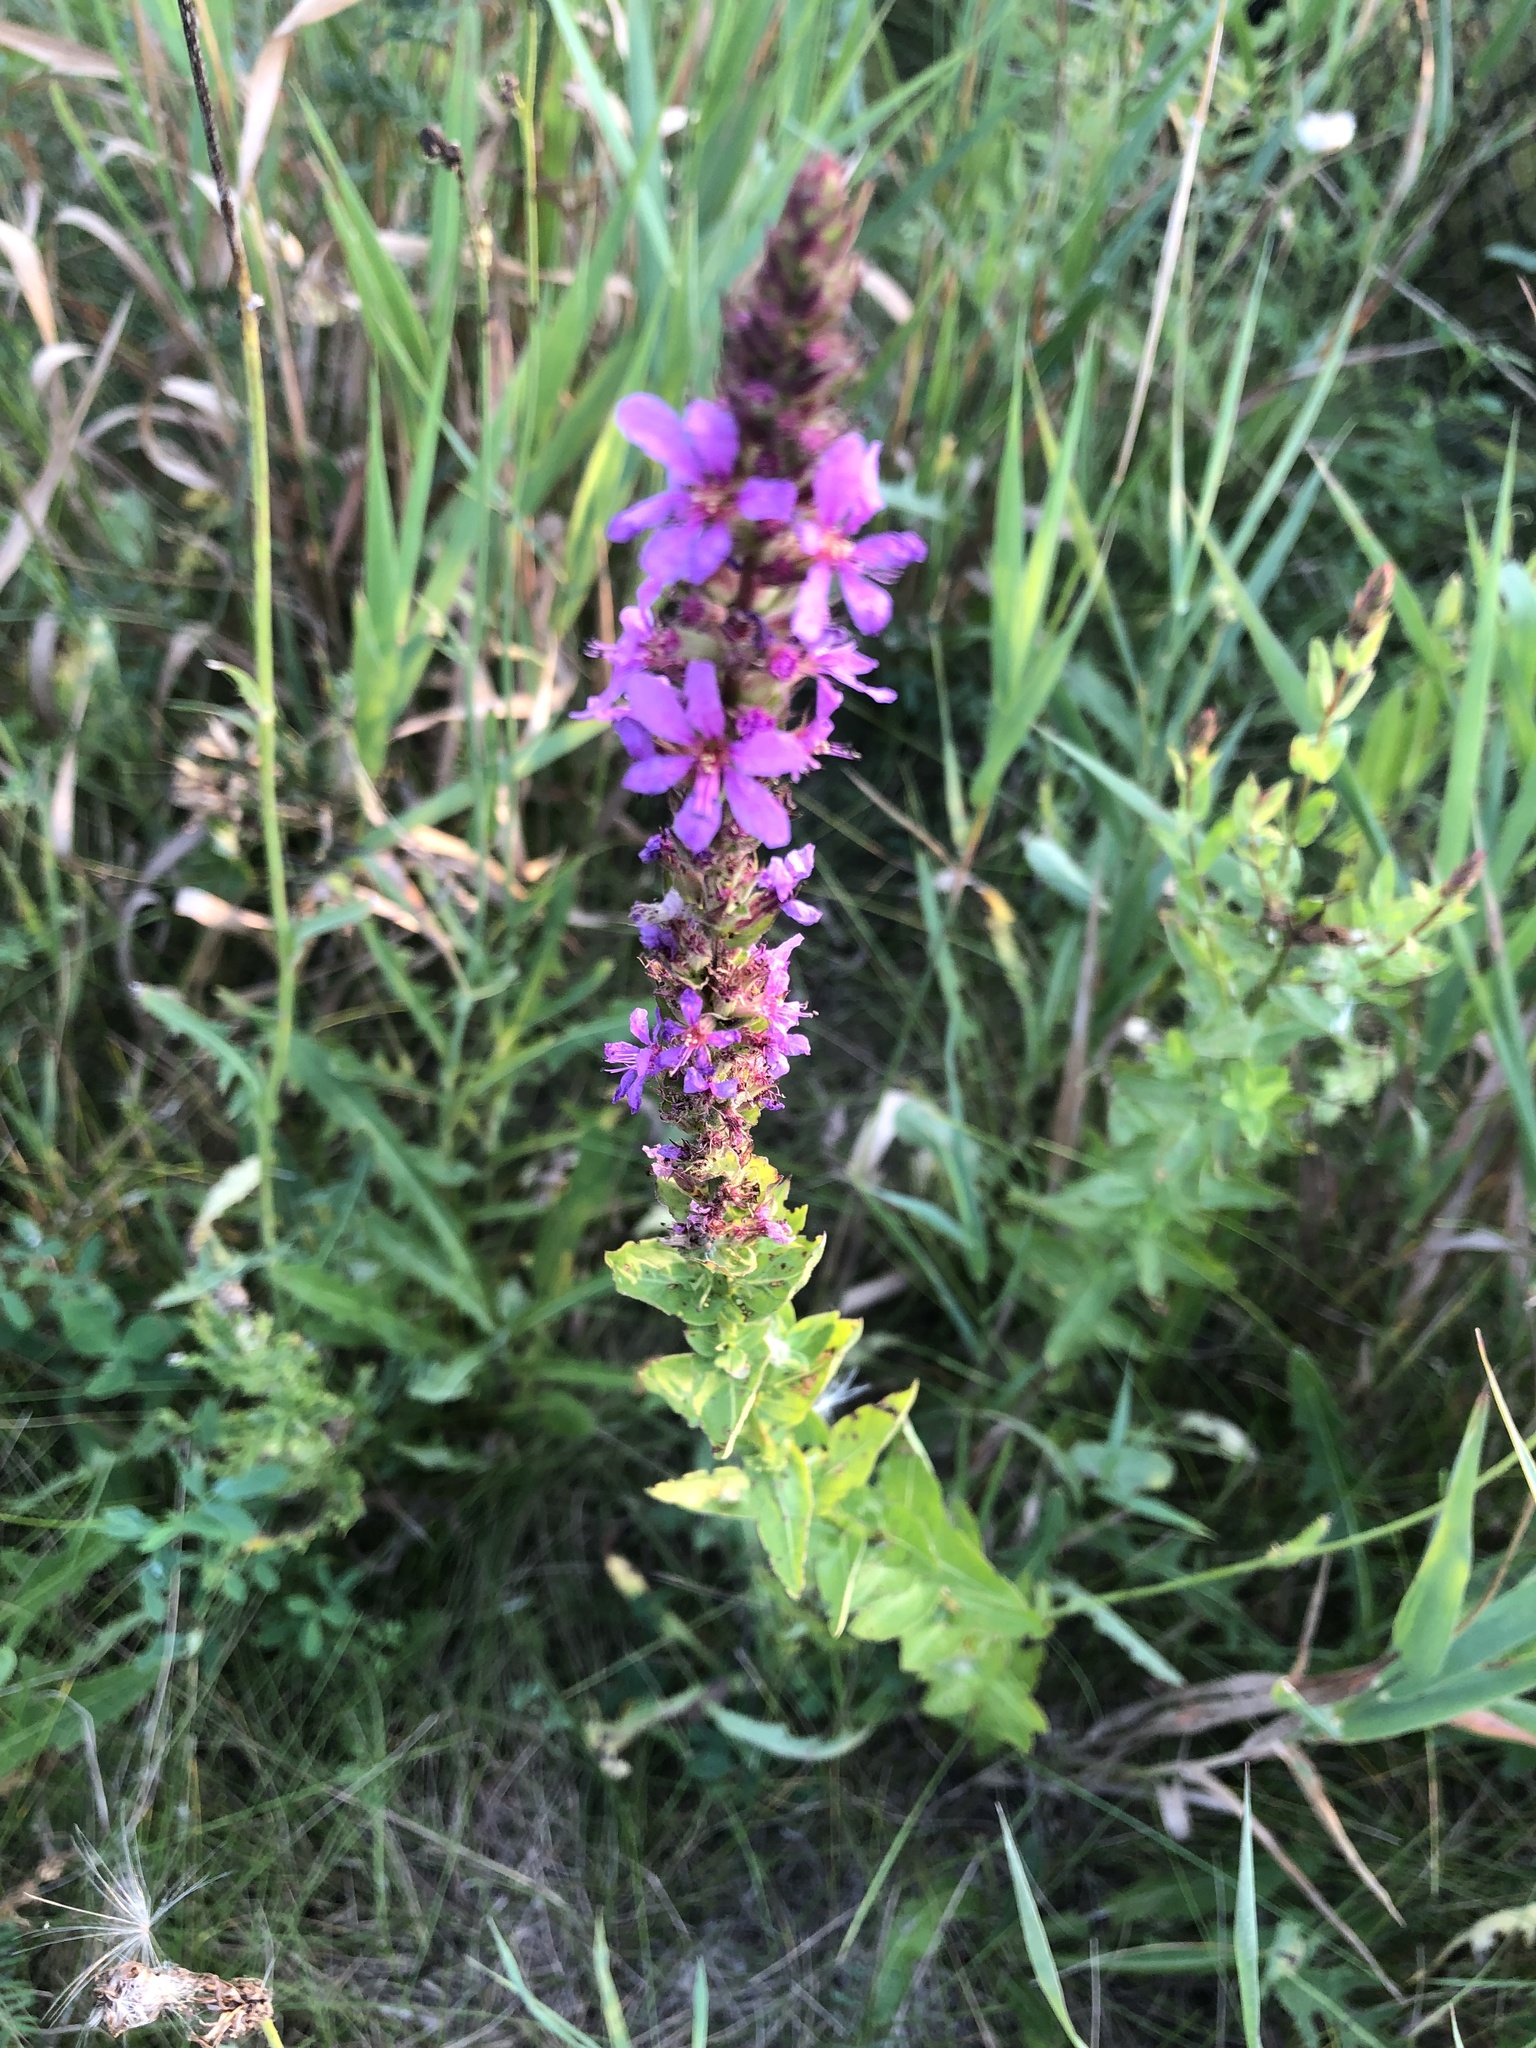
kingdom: Plantae
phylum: Tracheophyta
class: Magnoliopsida
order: Myrtales
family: Lythraceae
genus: Lythrum
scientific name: Lythrum salicaria
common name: Purple loosestrife
